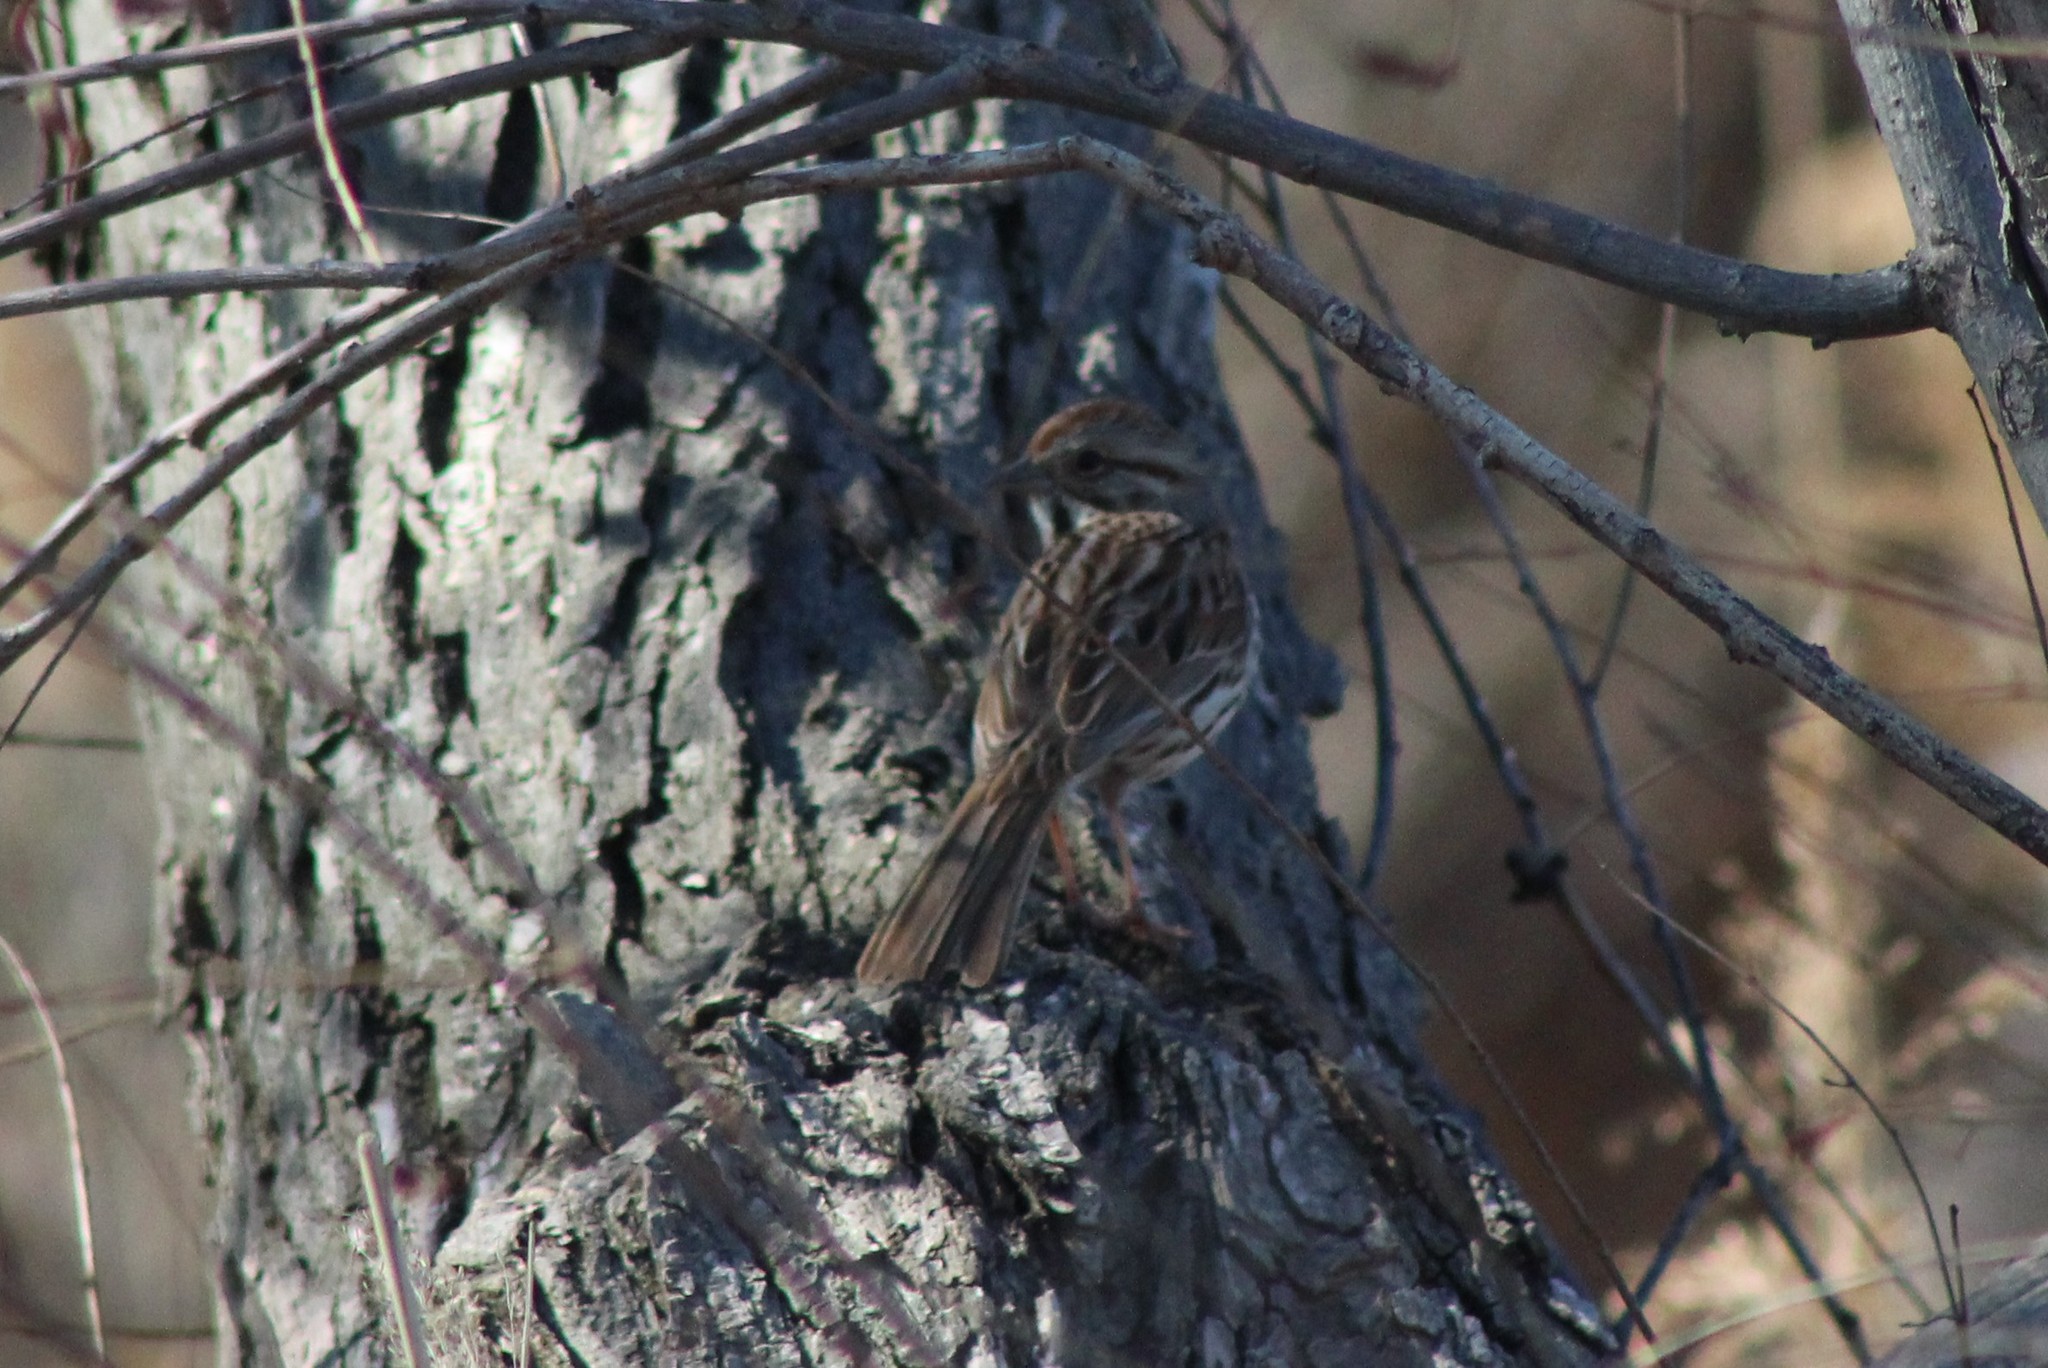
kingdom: Animalia
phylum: Chordata
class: Aves
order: Passeriformes
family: Passerellidae
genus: Melospiza
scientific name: Melospiza melodia
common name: Song sparrow
